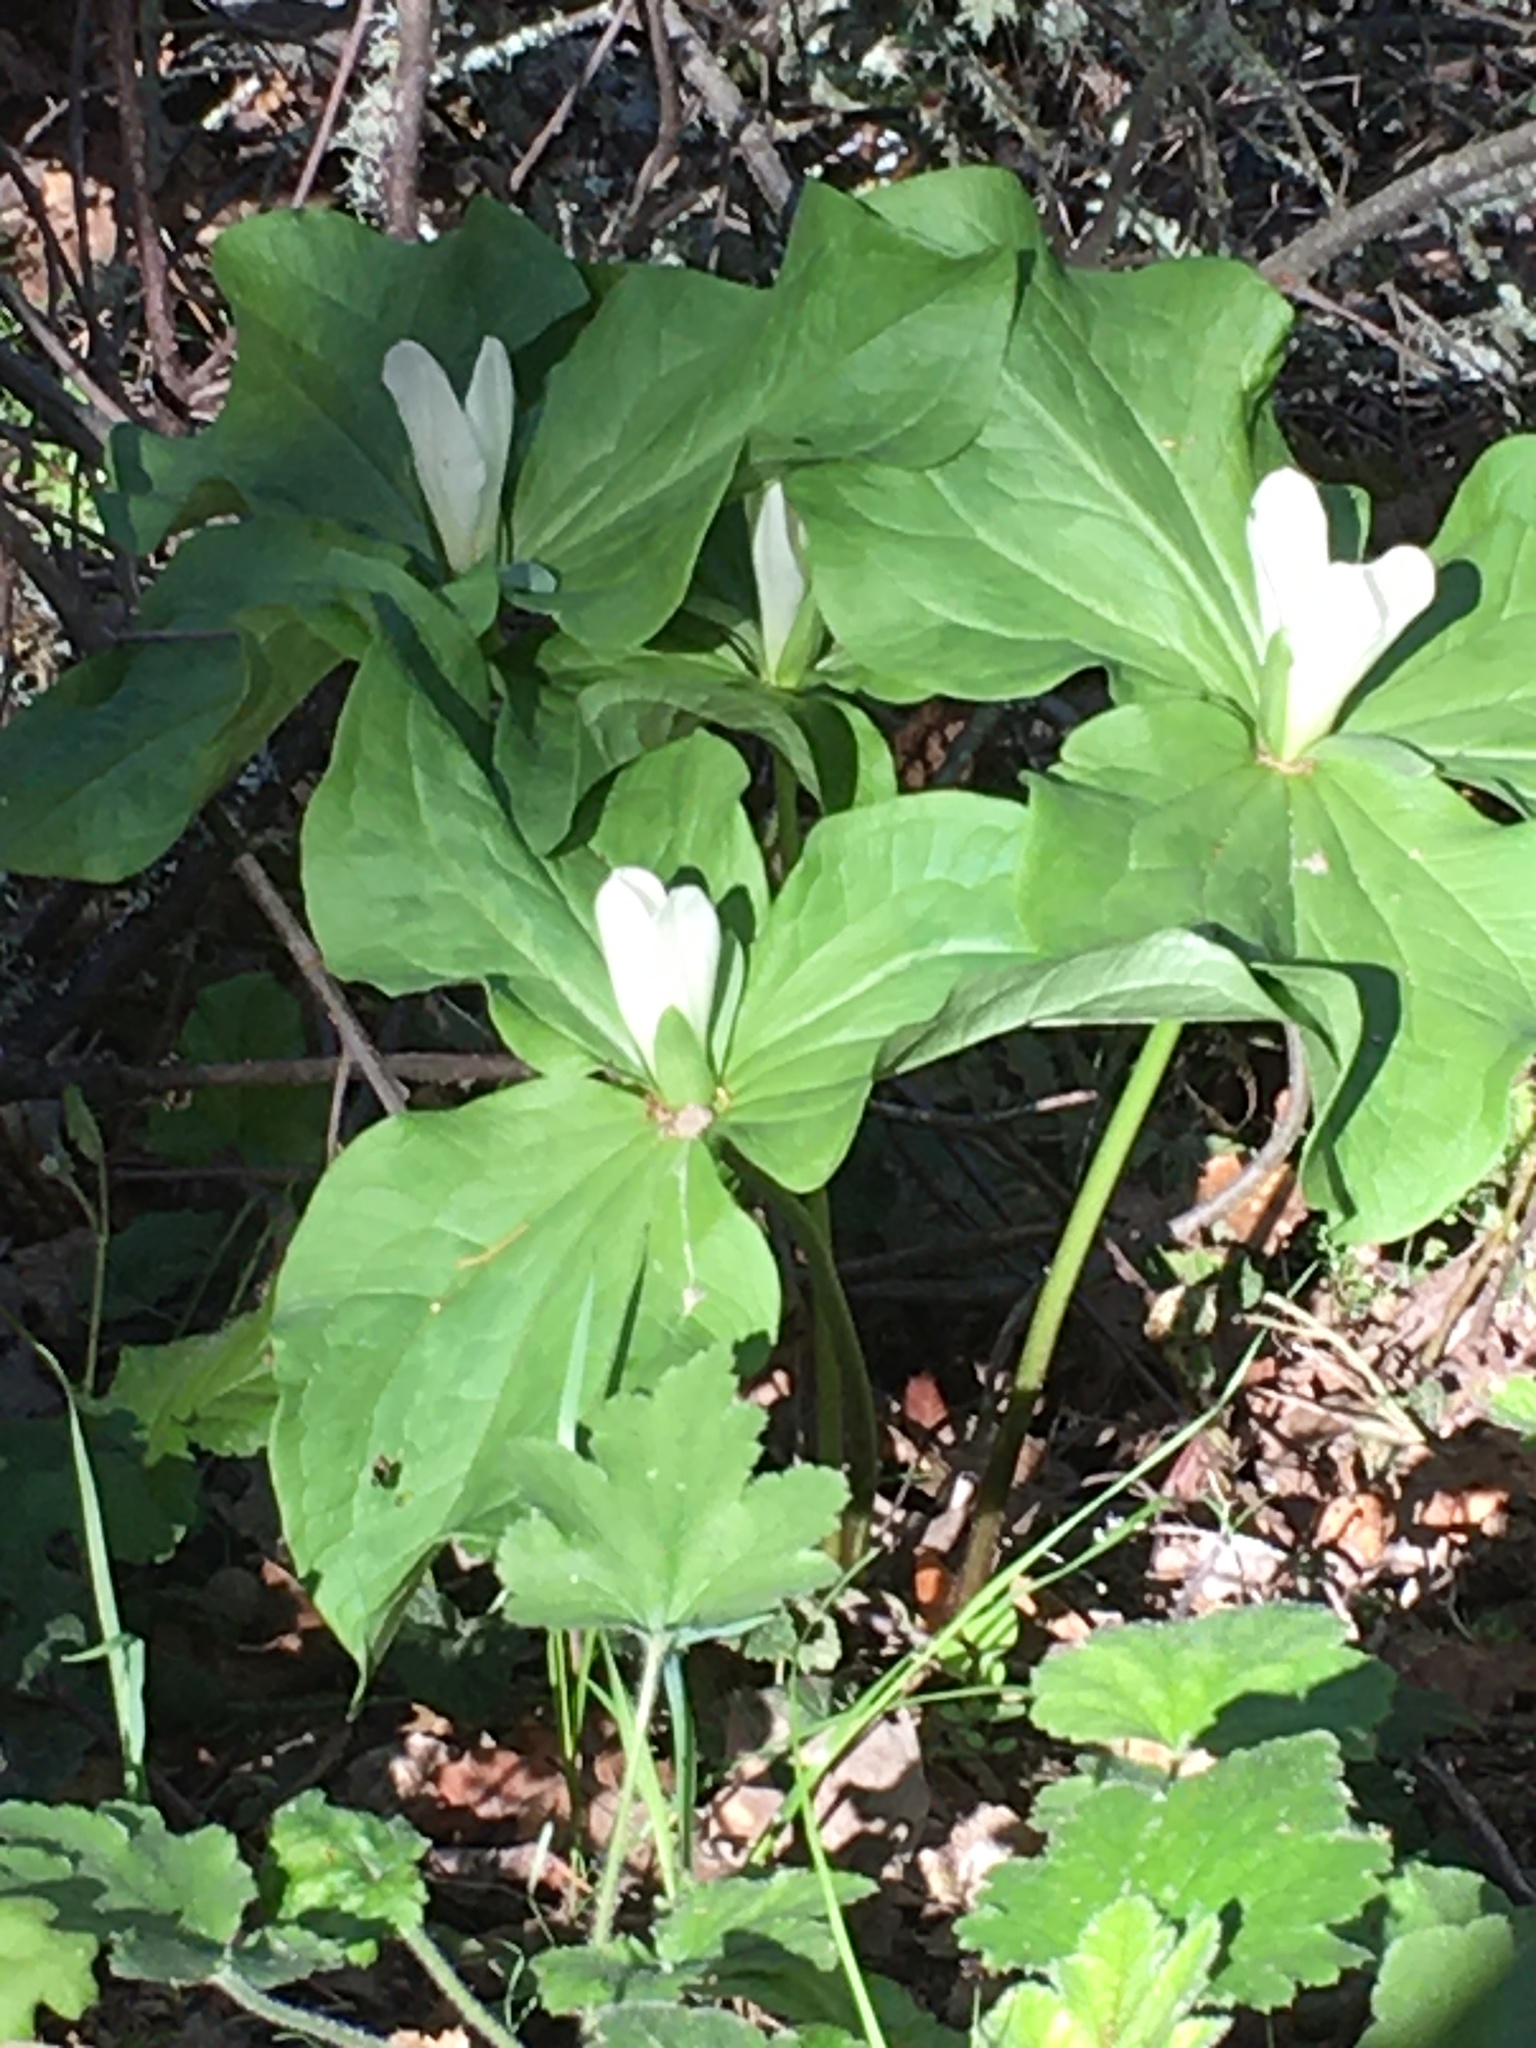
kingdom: Plantae
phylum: Tracheophyta
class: Liliopsida
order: Liliales
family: Melanthiaceae
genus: Trillium
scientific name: Trillium albidum
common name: Freeman's trillium
